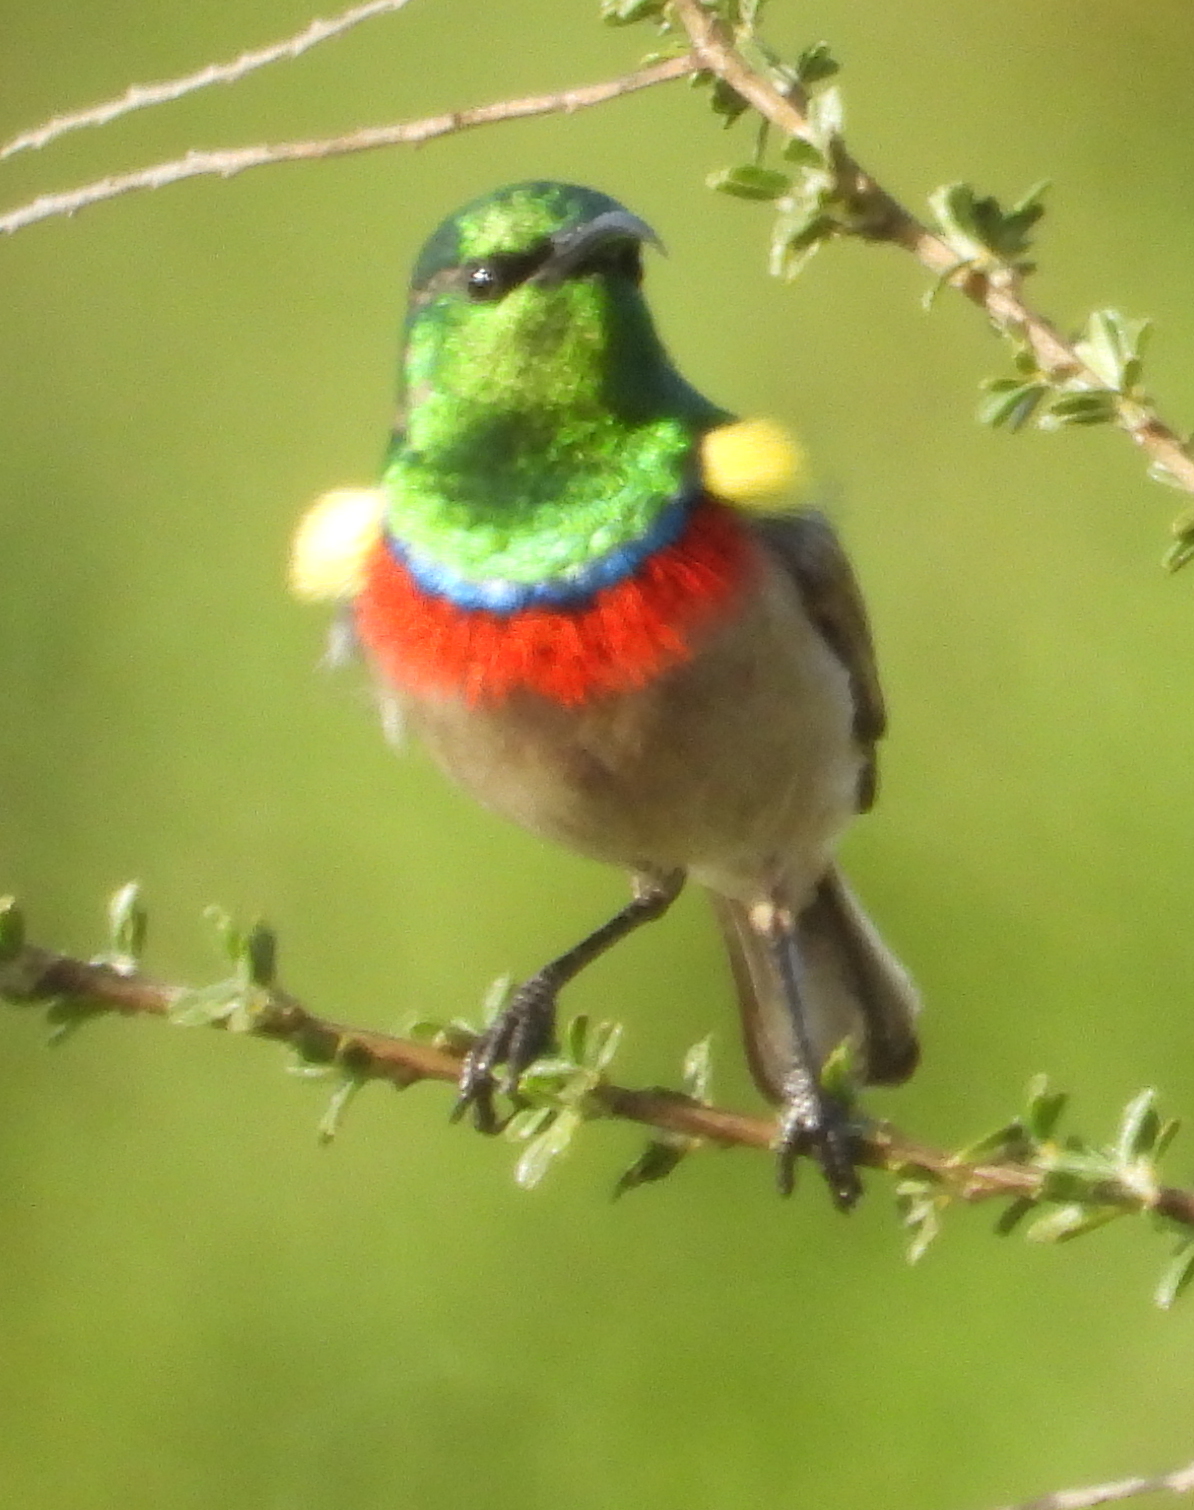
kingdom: Animalia
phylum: Chordata
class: Aves
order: Passeriformes
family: Nectariniidae
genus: Cinnyris
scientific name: Cinnyris chalybeus
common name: Southern double-collared sunbird
